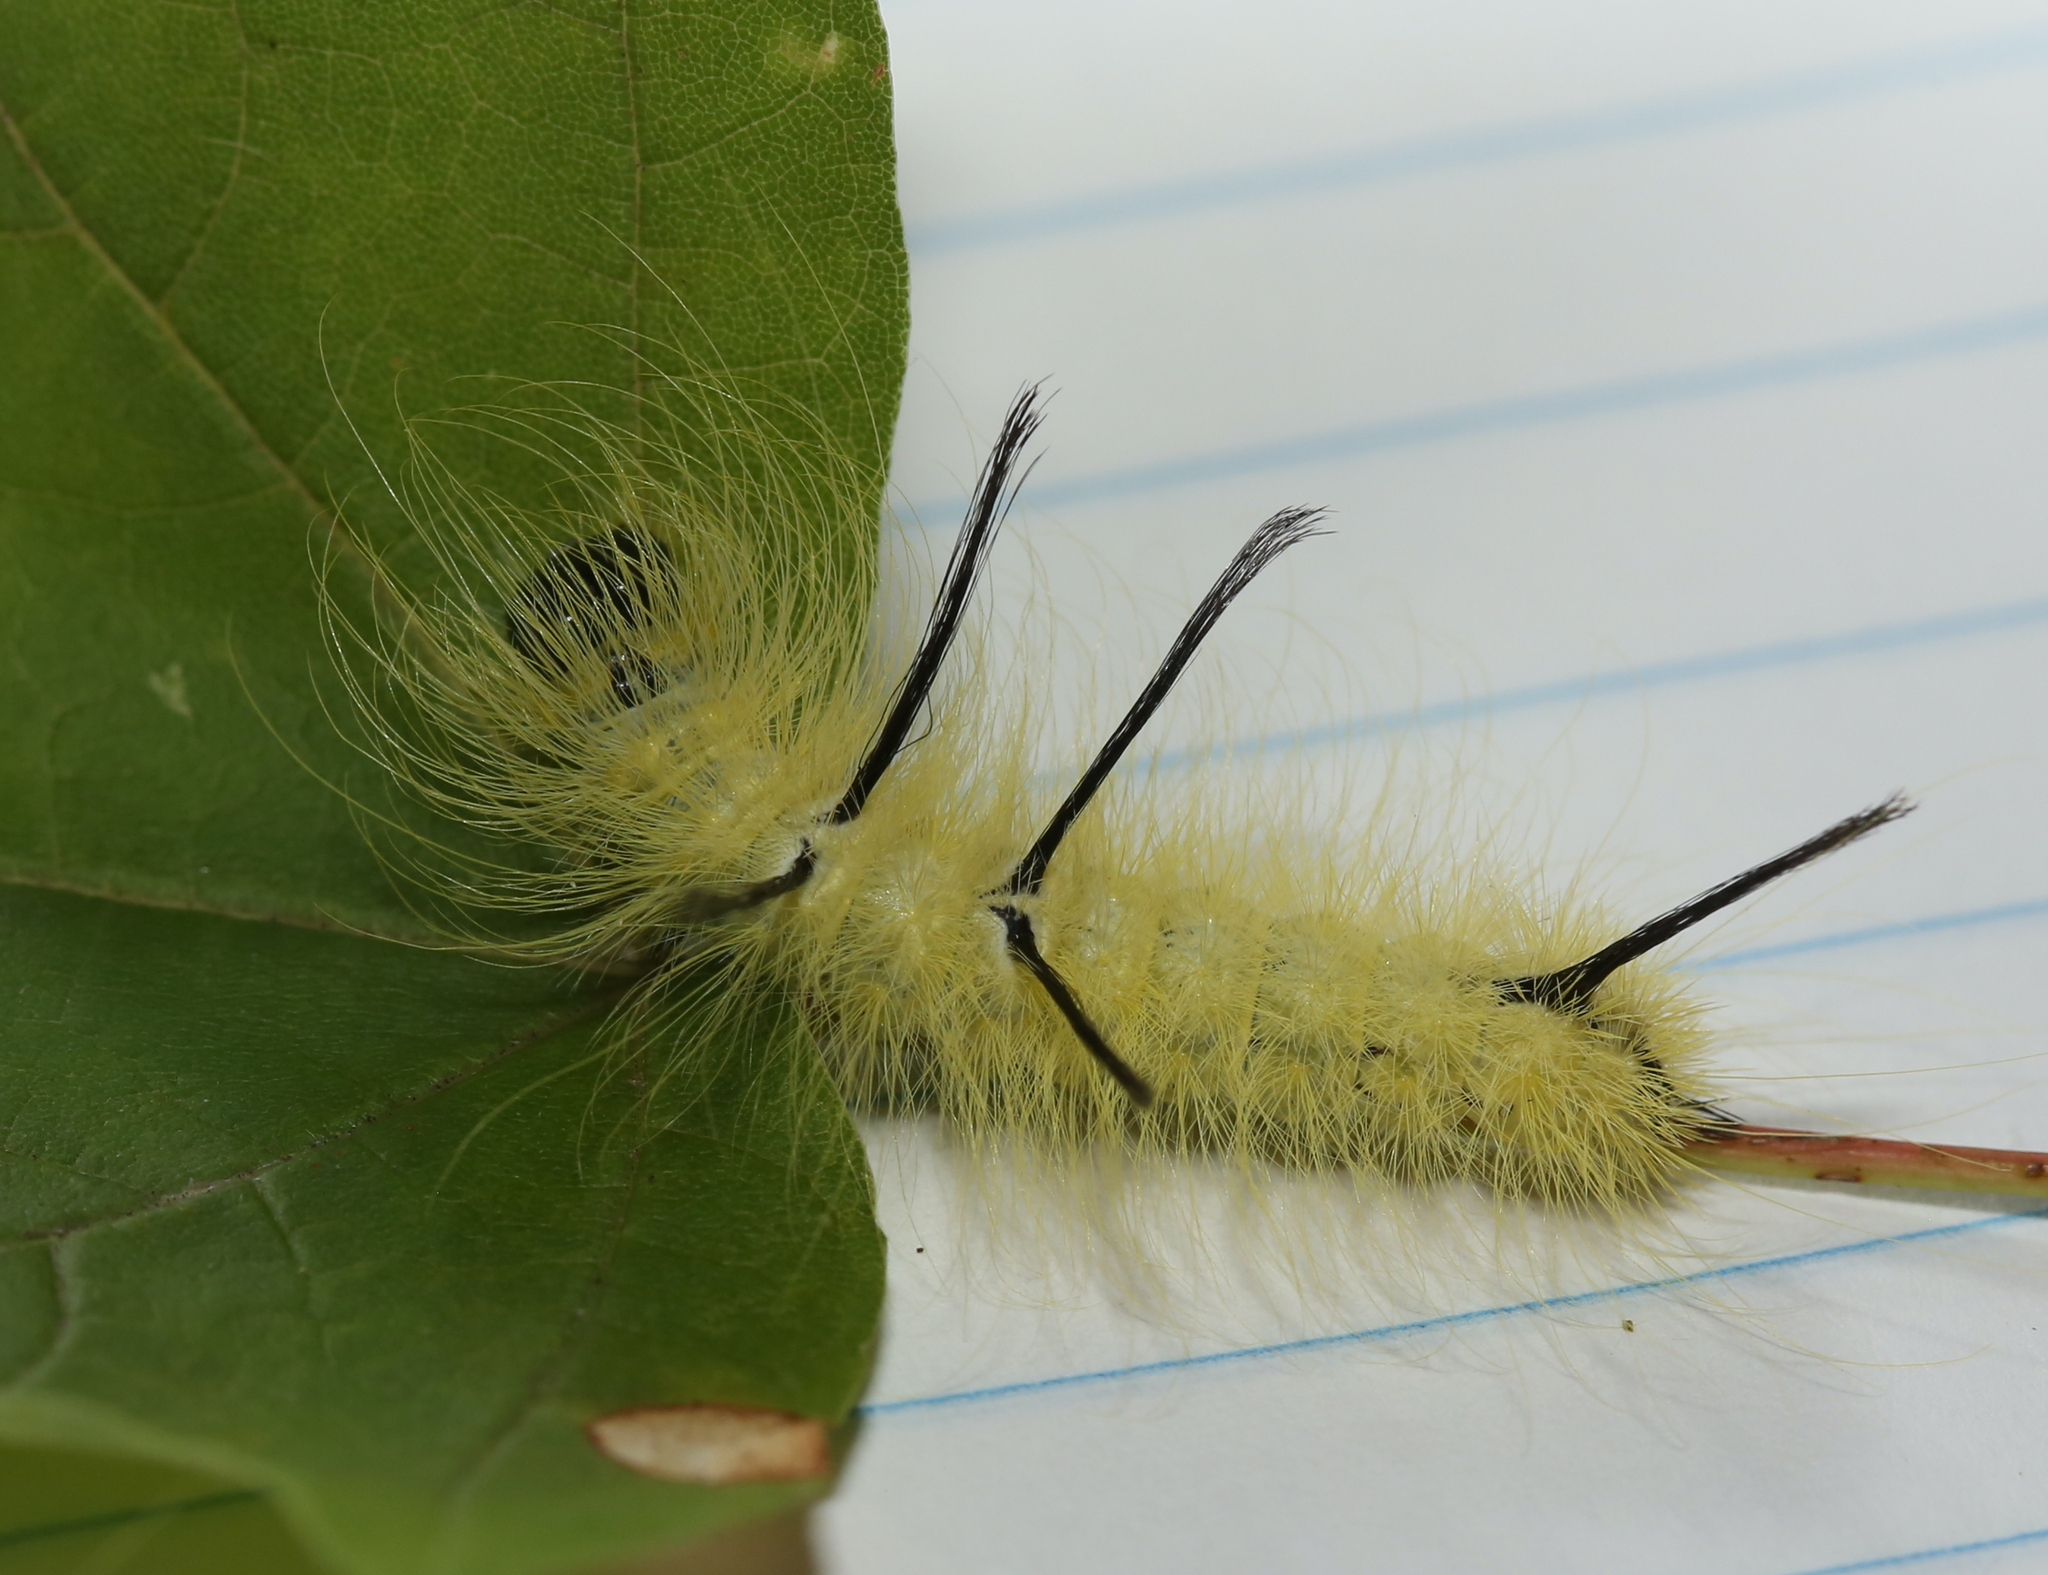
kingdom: Animalia
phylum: Arthropoda
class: Insecta
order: Lepidoptera
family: Noctuidae
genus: Acronicta
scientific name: Acronicta americana
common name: American dagger
